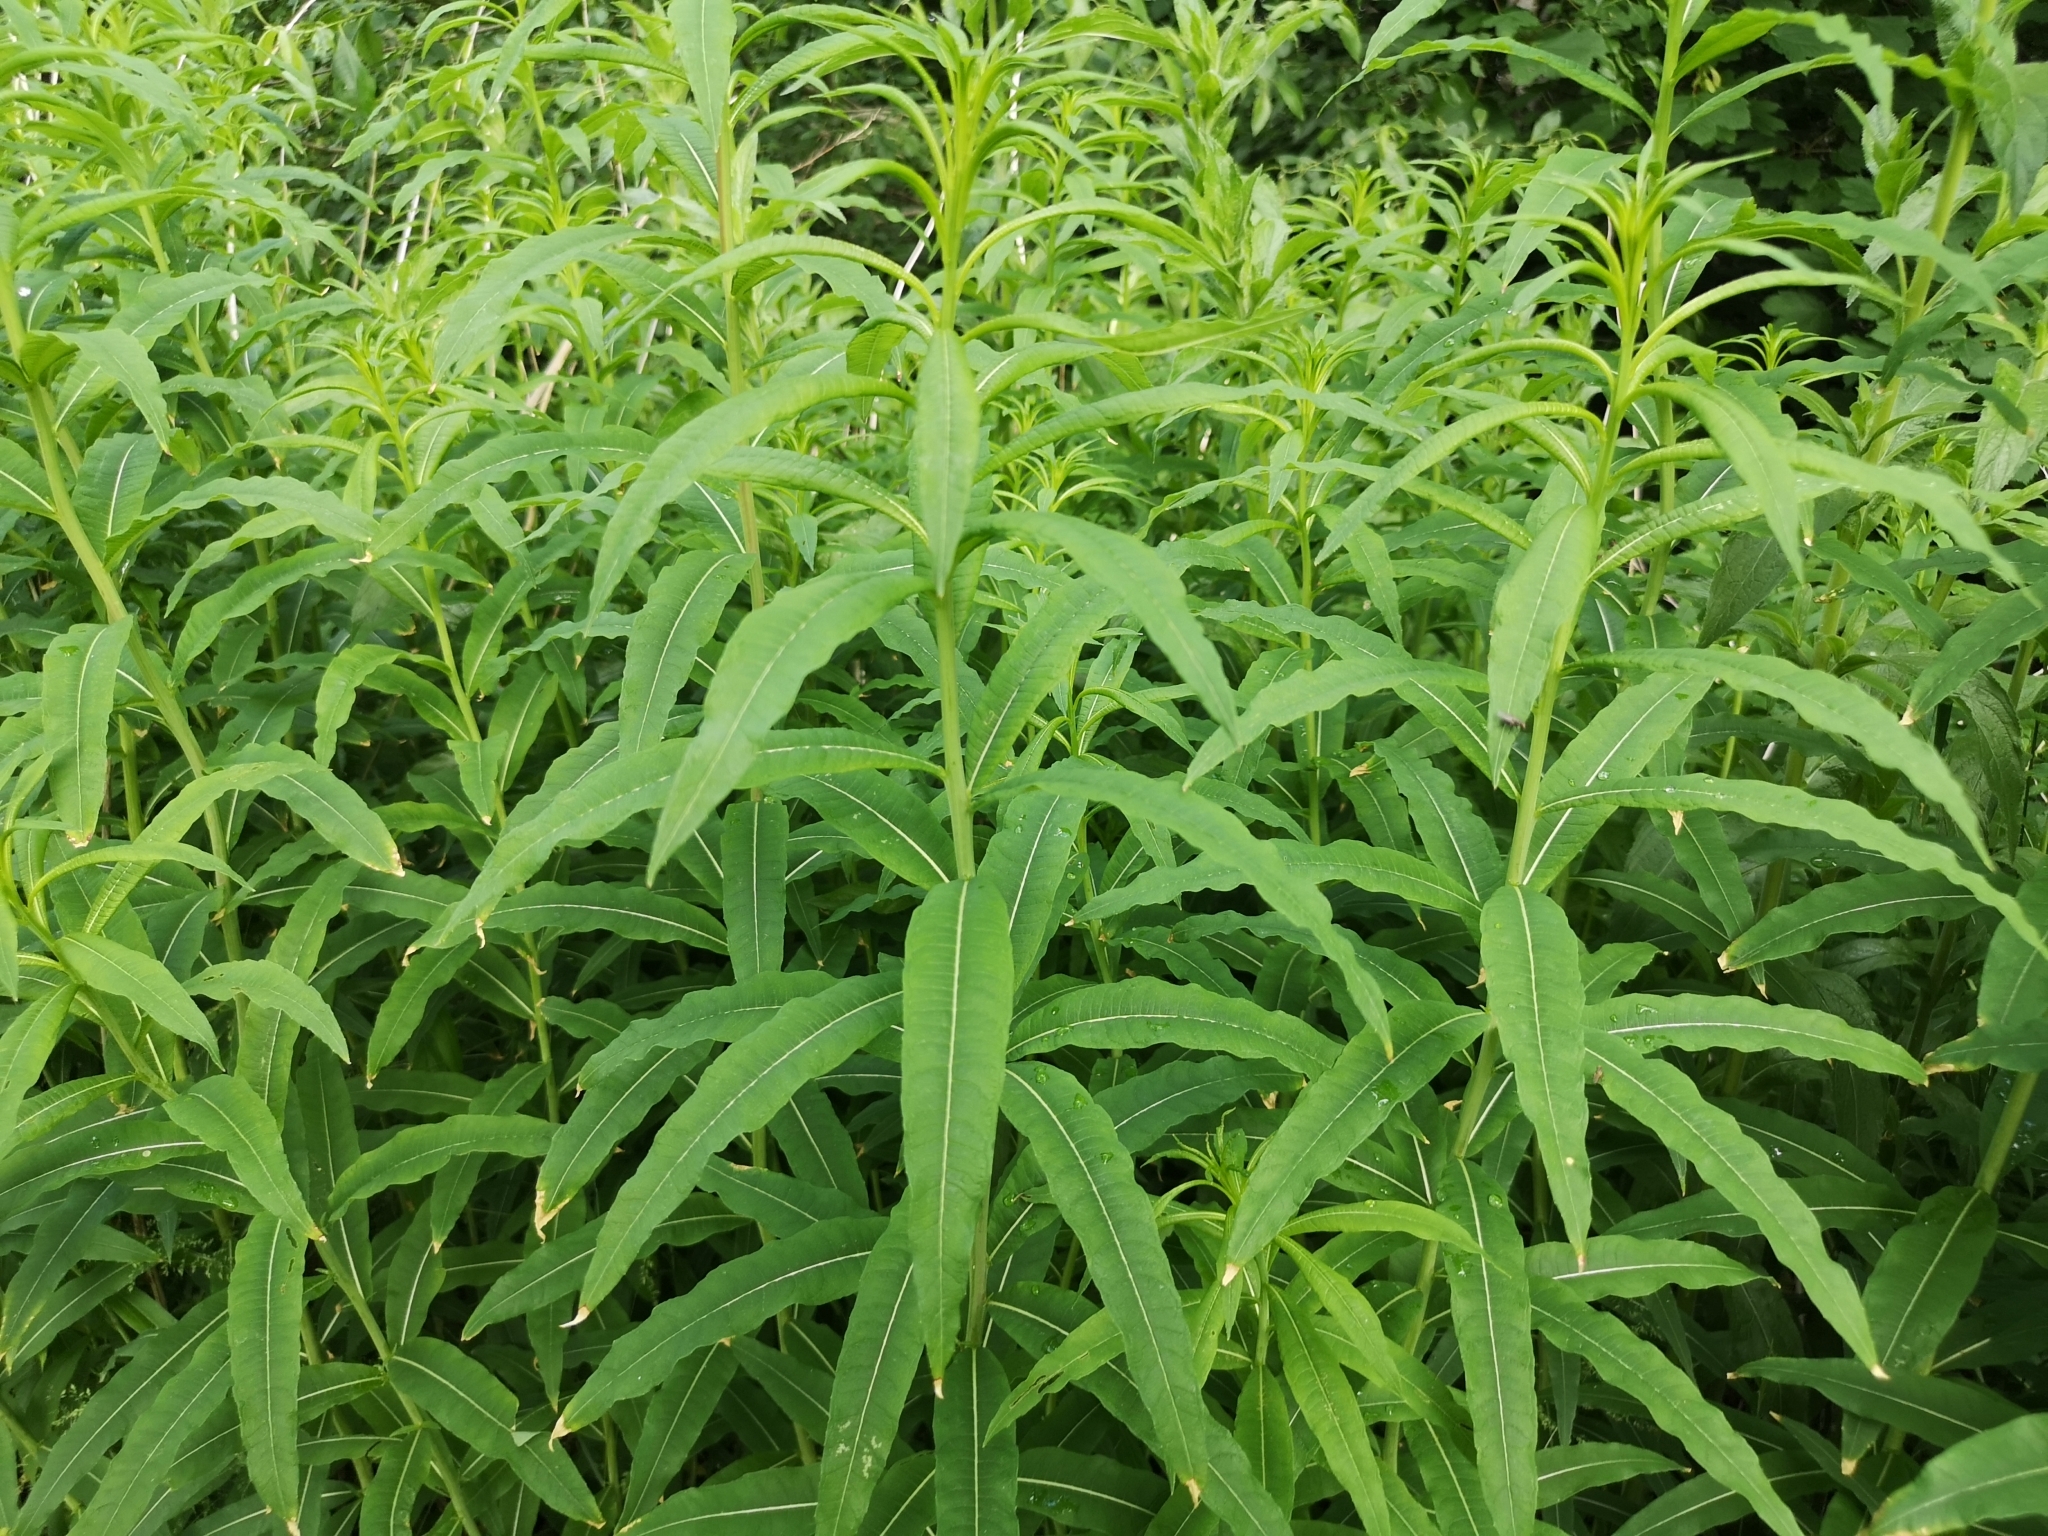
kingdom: Plantae
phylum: Tracheophyta
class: Magnoliopsida
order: Myrtales
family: Onagraceae
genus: Chamaenerion
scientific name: Chamaenerion angustifolium
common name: Fireweed
